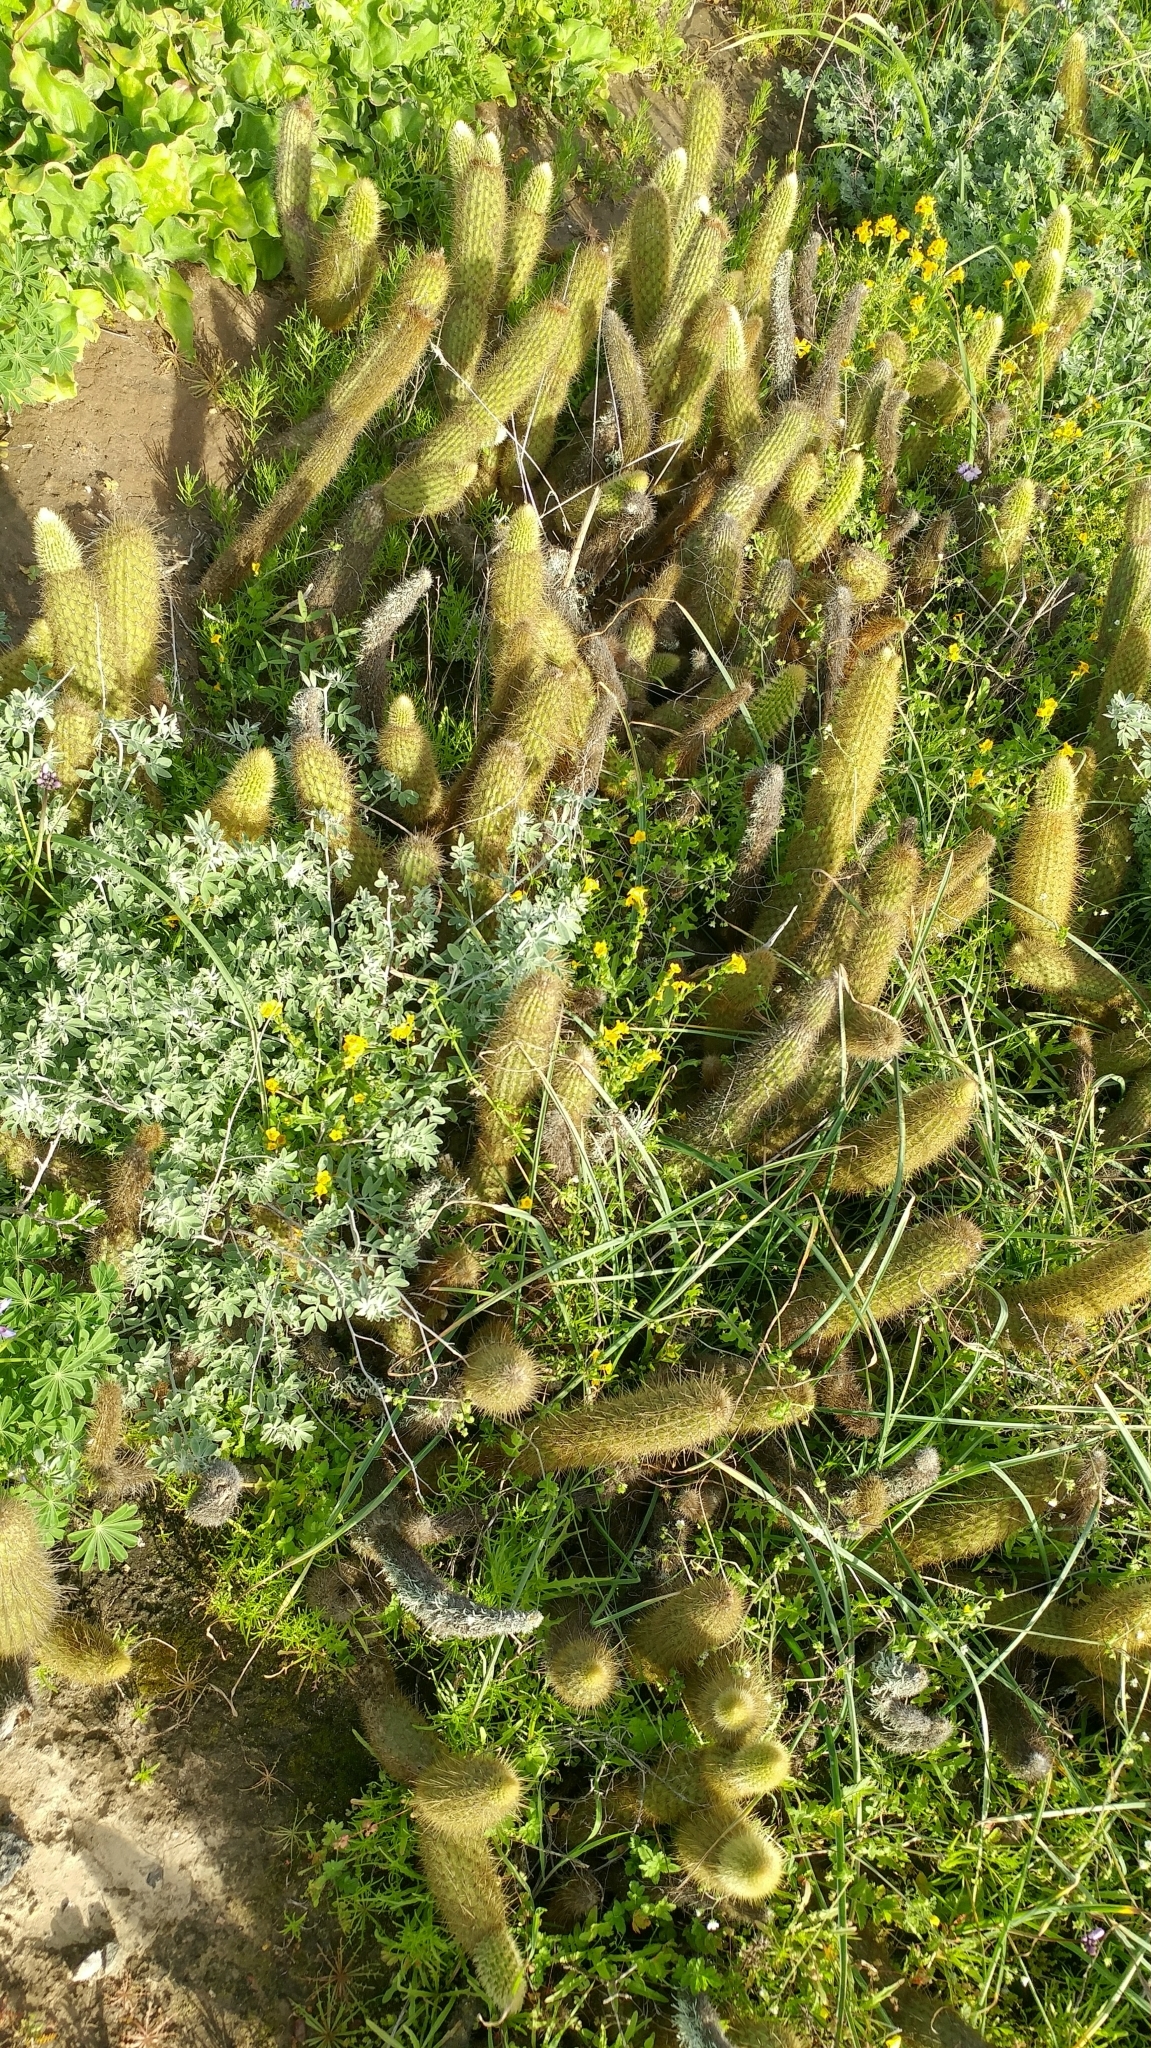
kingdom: Plantae
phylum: Tracheophyta
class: Magnoliopsida
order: Caryophyllales
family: Cactaceae
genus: Bergerocactus
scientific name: Bergerocactus emoryi
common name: Golden snakecactus
